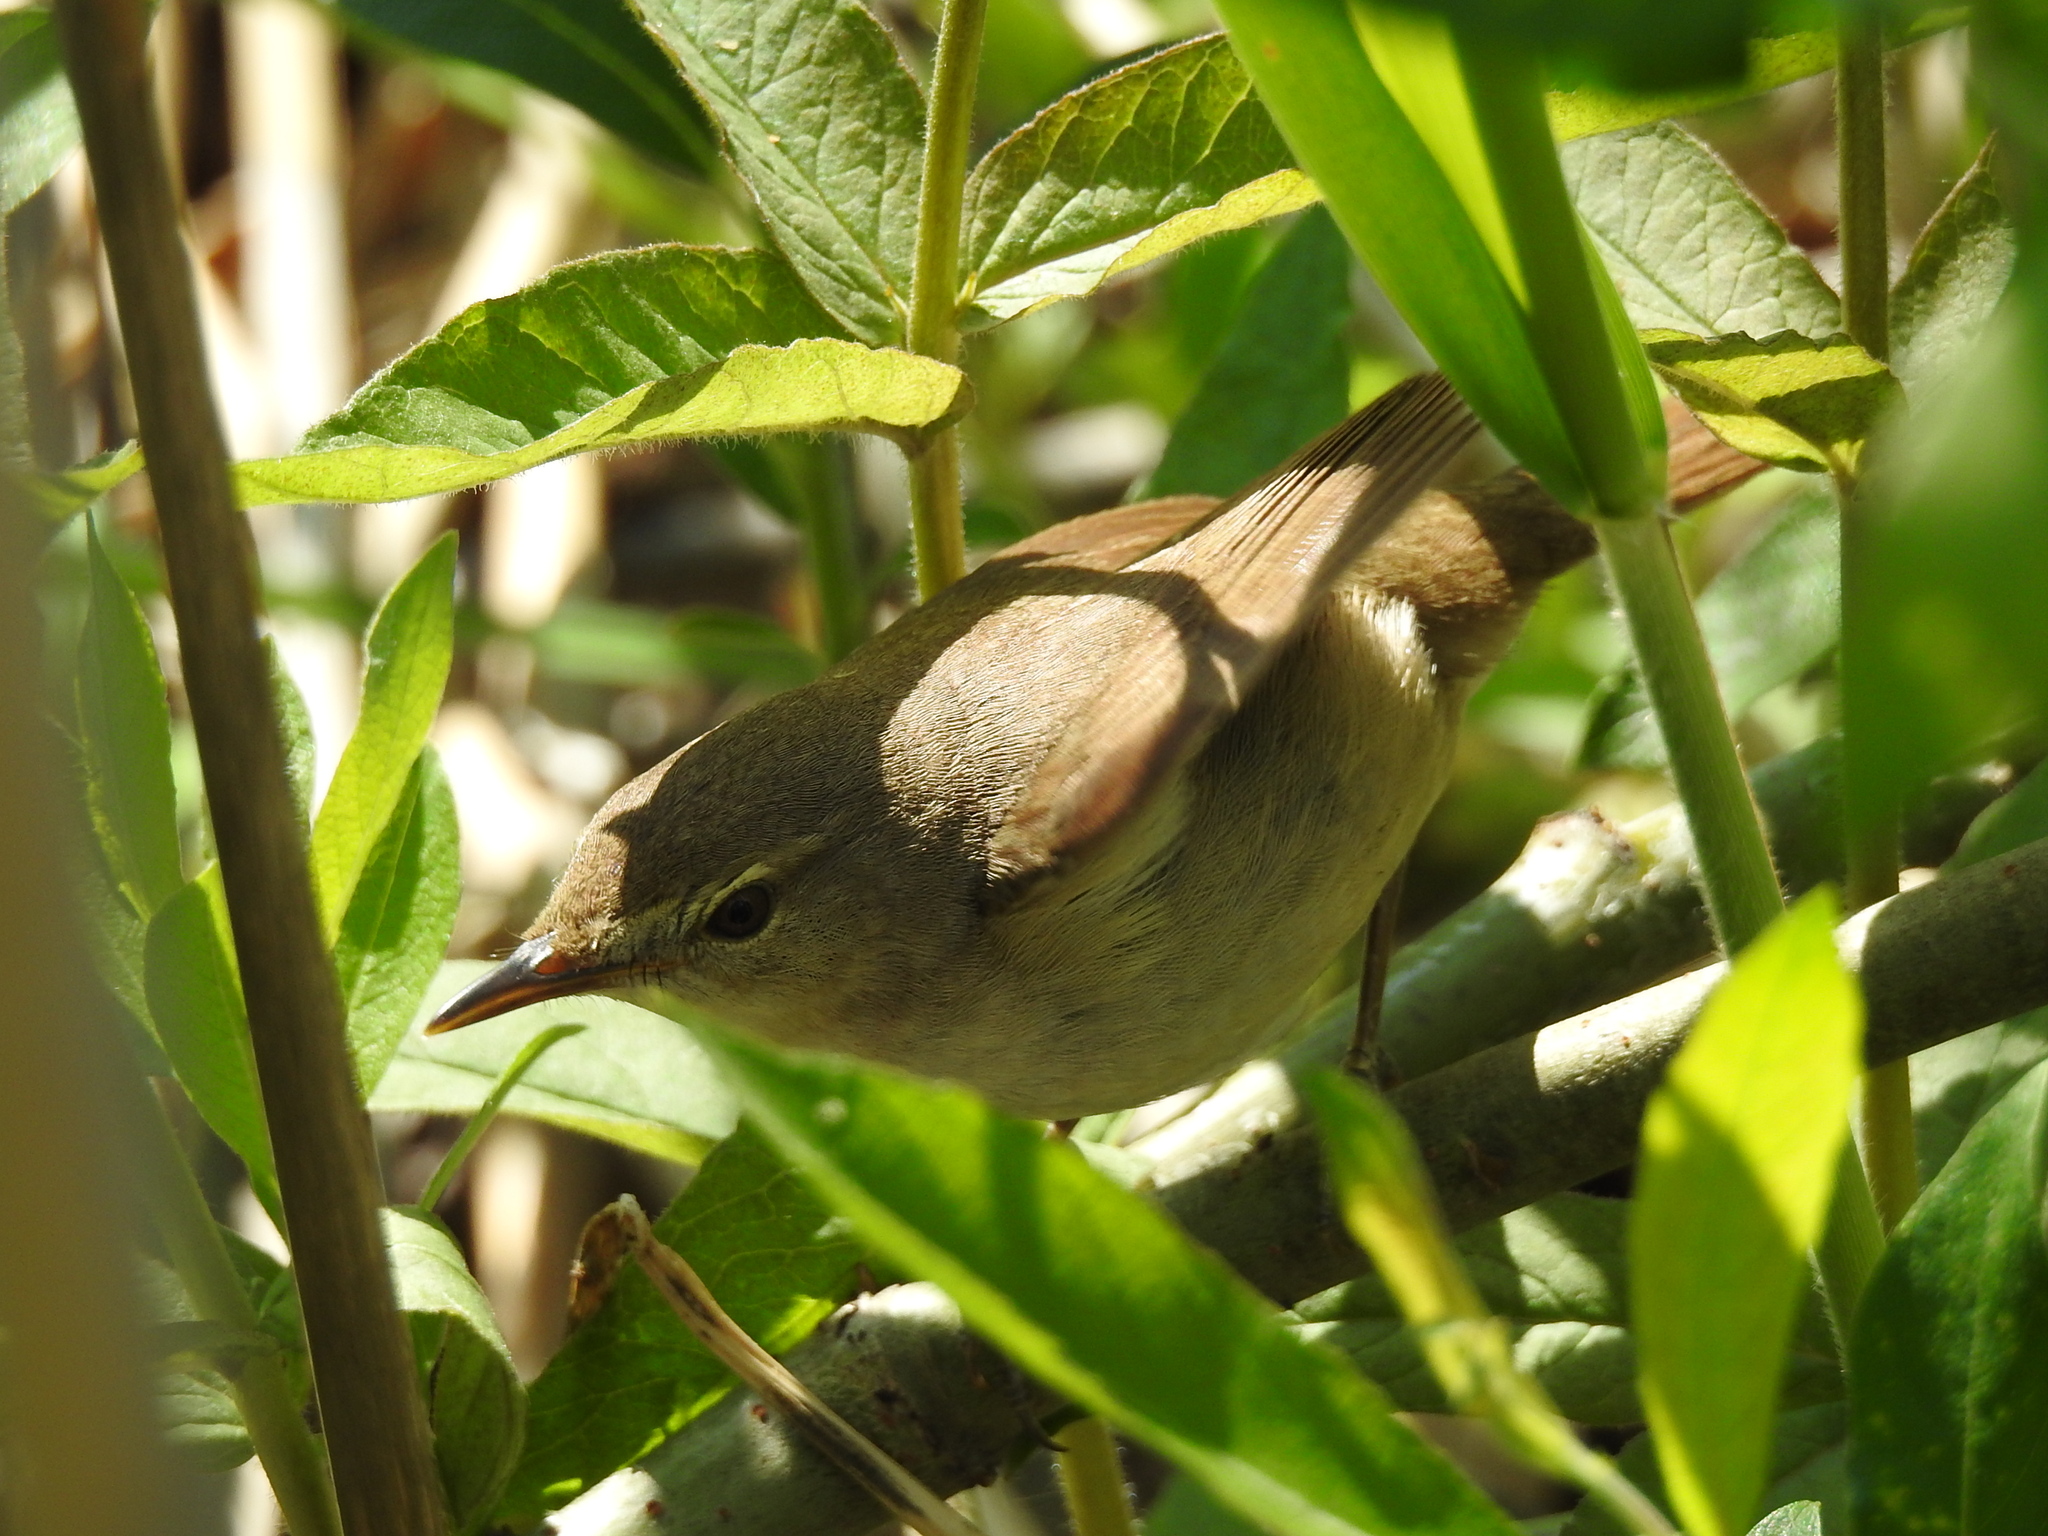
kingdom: Animalia
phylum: Chordata
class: Aves
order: Passeriformes
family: Acrocephalidae
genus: Acrocephalus
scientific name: Acrocephalus dumetorum
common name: Blyth's reed warbler
